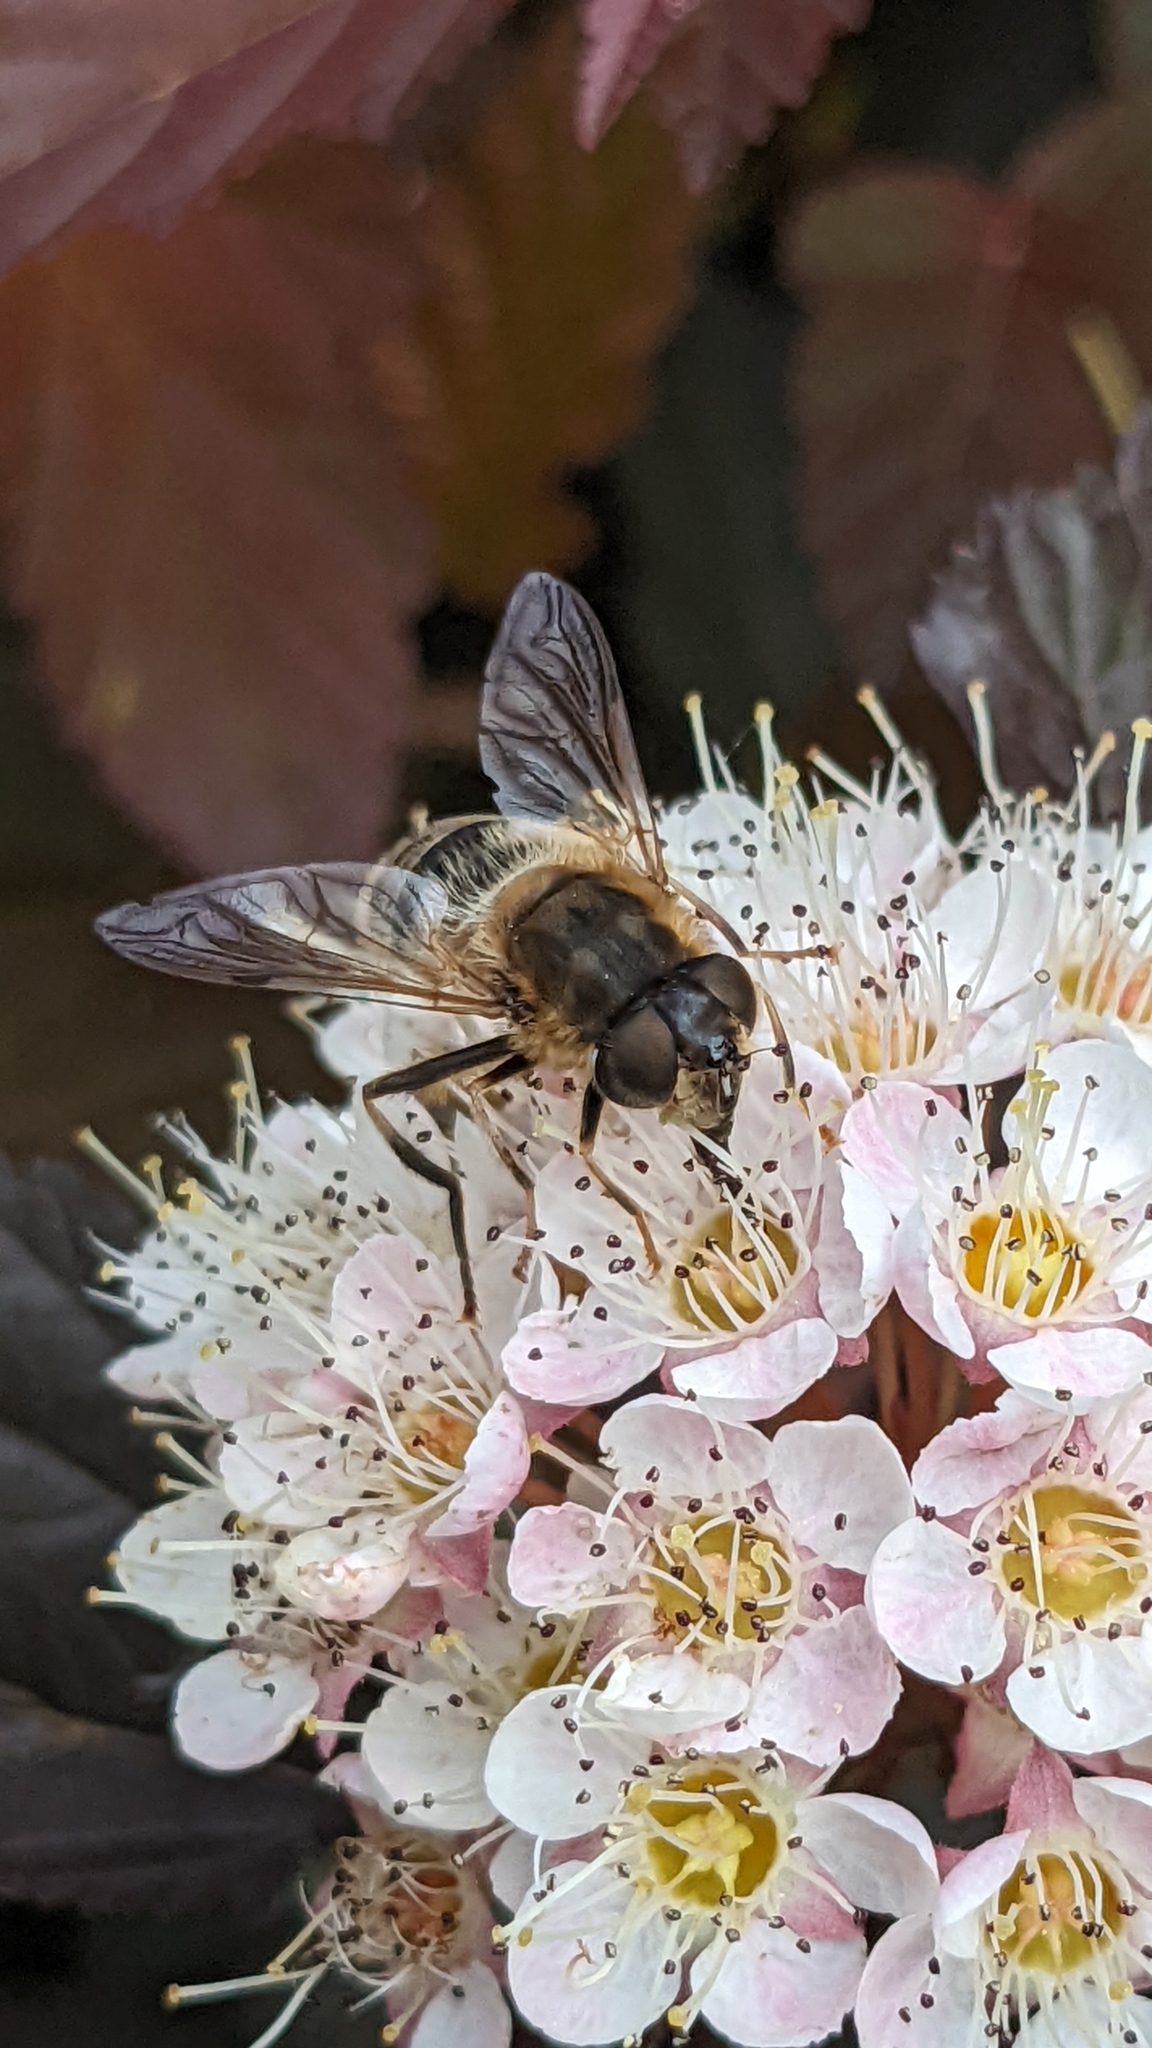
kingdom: Animalia
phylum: Arthropoda
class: Insecta
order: Diptera
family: Syrphidae
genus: Eristalis
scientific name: Eristalis pertinax
